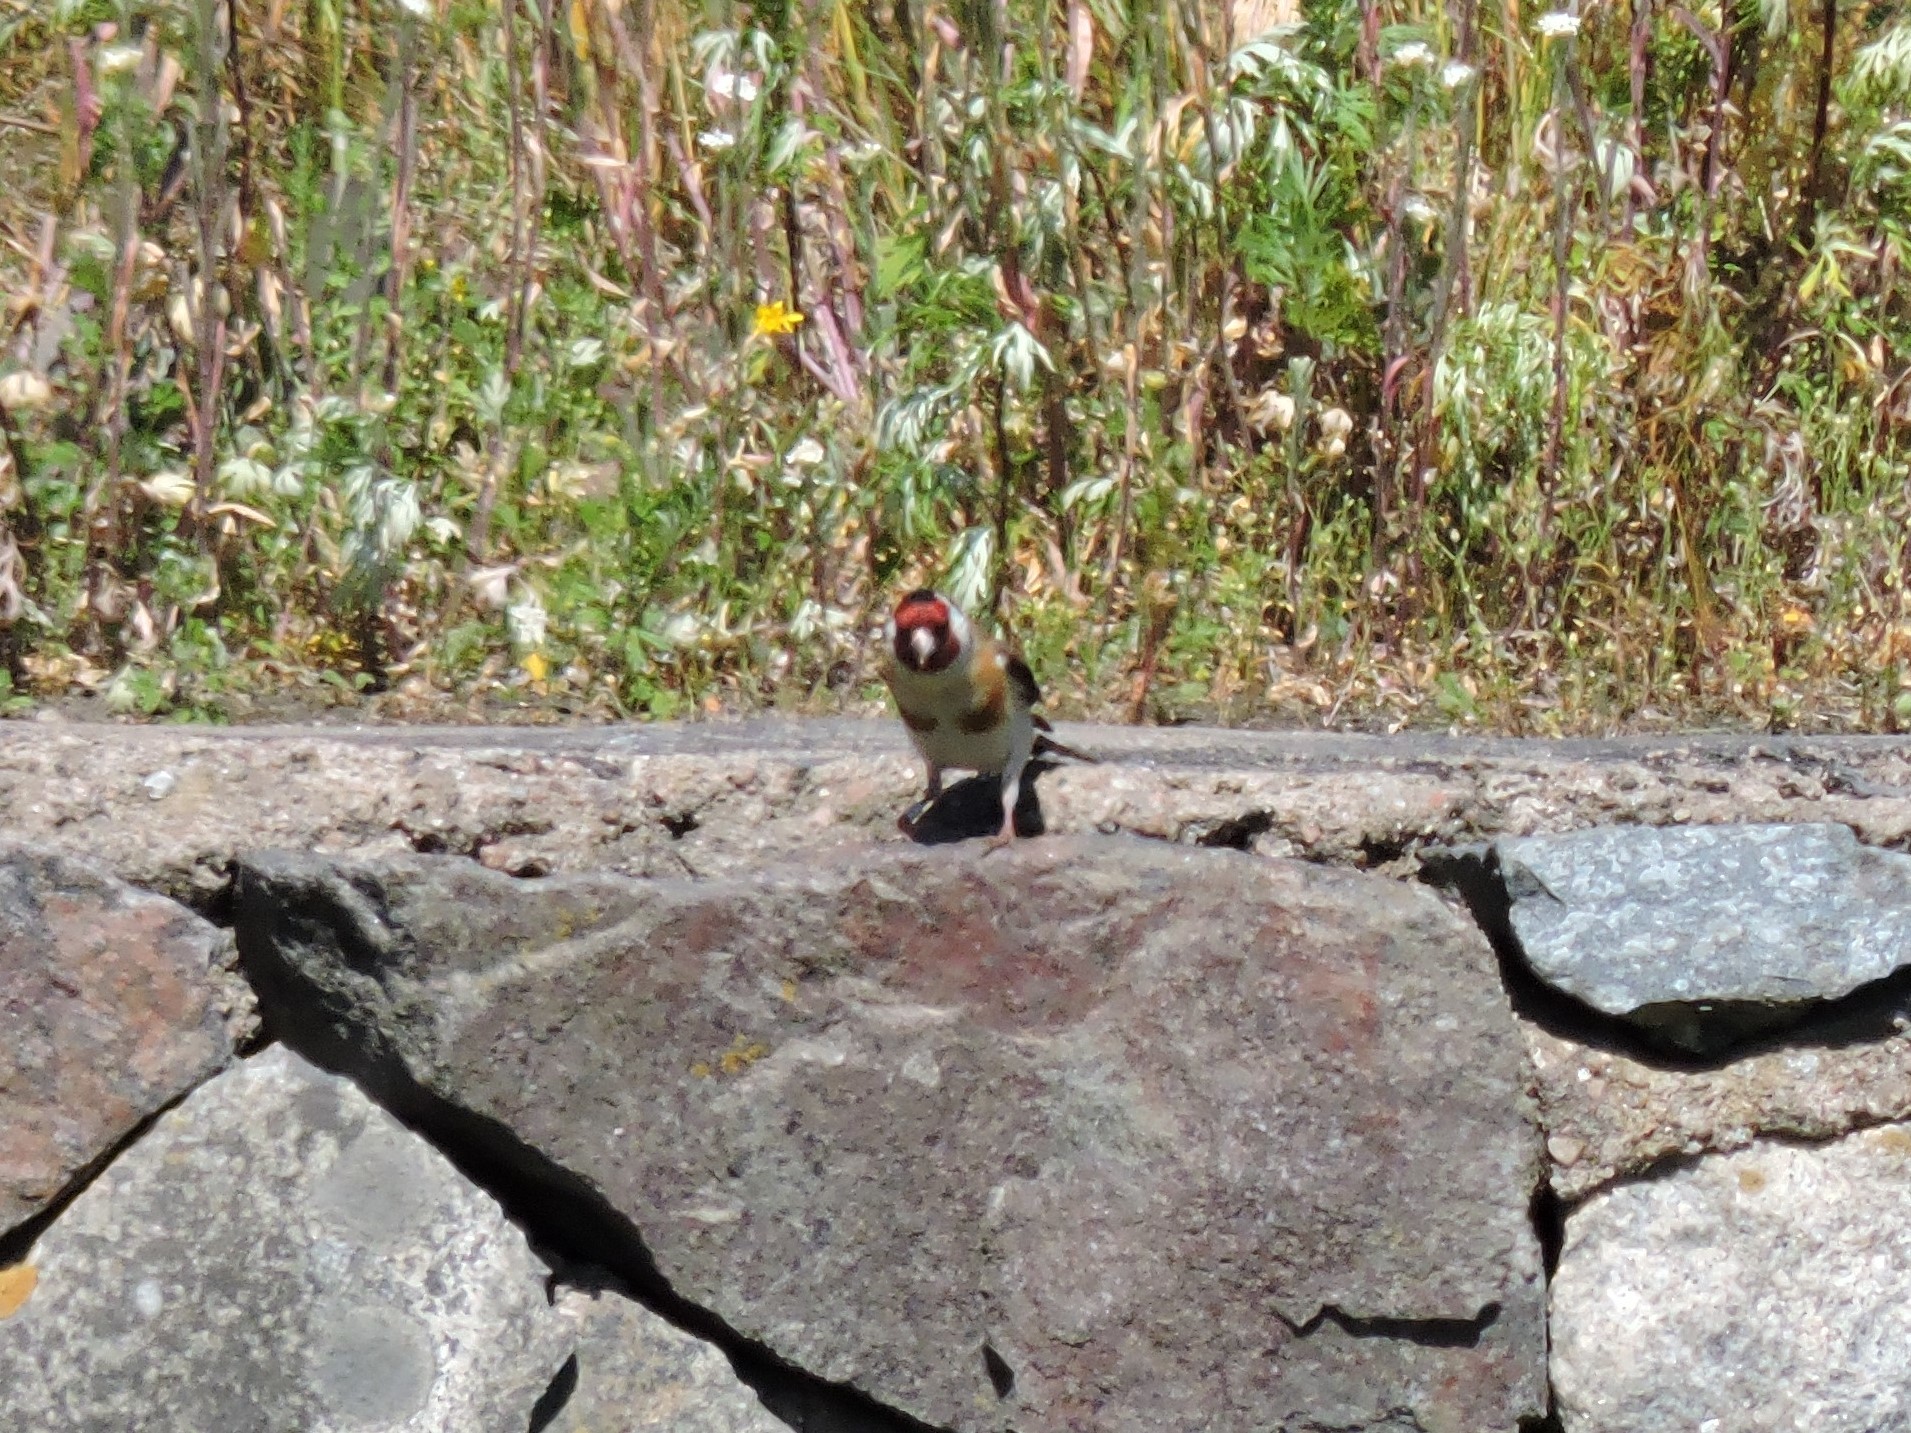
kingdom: Animalia
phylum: Chordata
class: Aves
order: Passeriformes
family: Fringillidae
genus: Carduelis
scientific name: Carduelis carduelis
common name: European goldfinch
